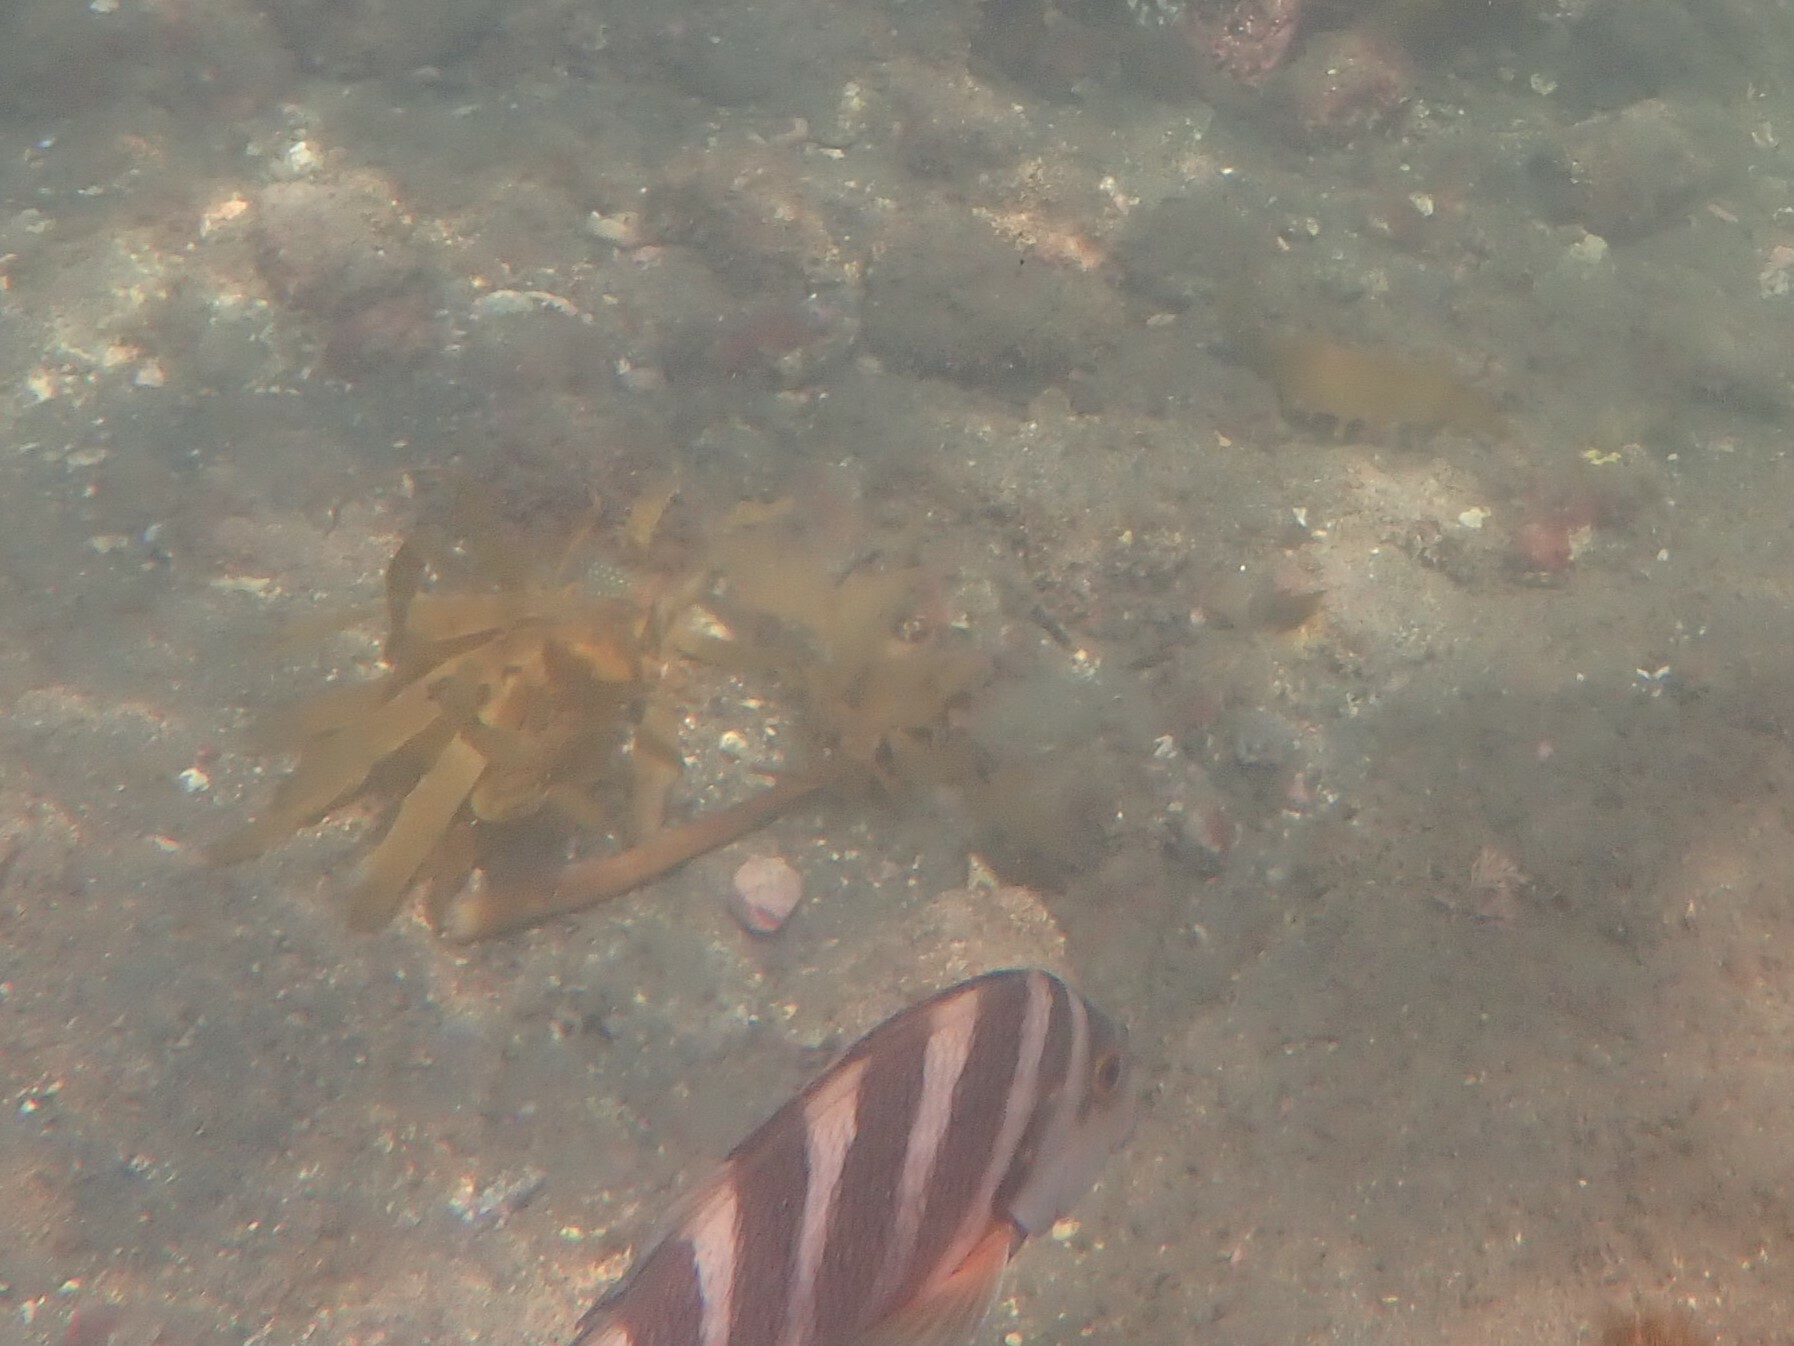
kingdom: Animalia
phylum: Chordata
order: Perciformes
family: Cheilodactylidae
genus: Cheilodactylus
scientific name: Cheilodactylus spectabilis
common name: Red moki
